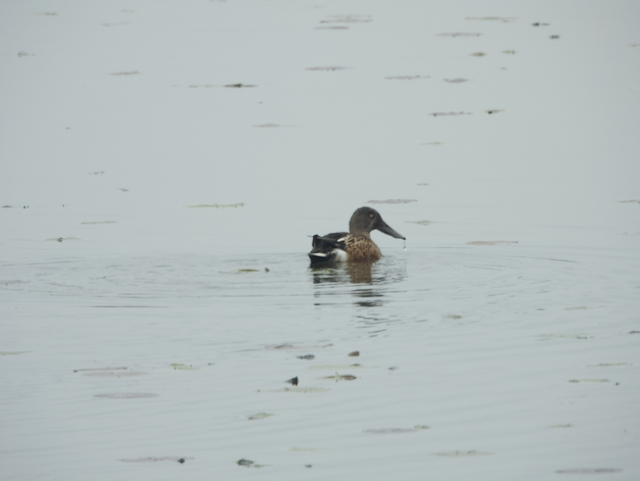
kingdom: Animalia
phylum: Chordata
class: Aves
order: Anseriformes
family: Anatidae
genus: Spatula
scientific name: Spatula clypeata
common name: Northern shoveler
